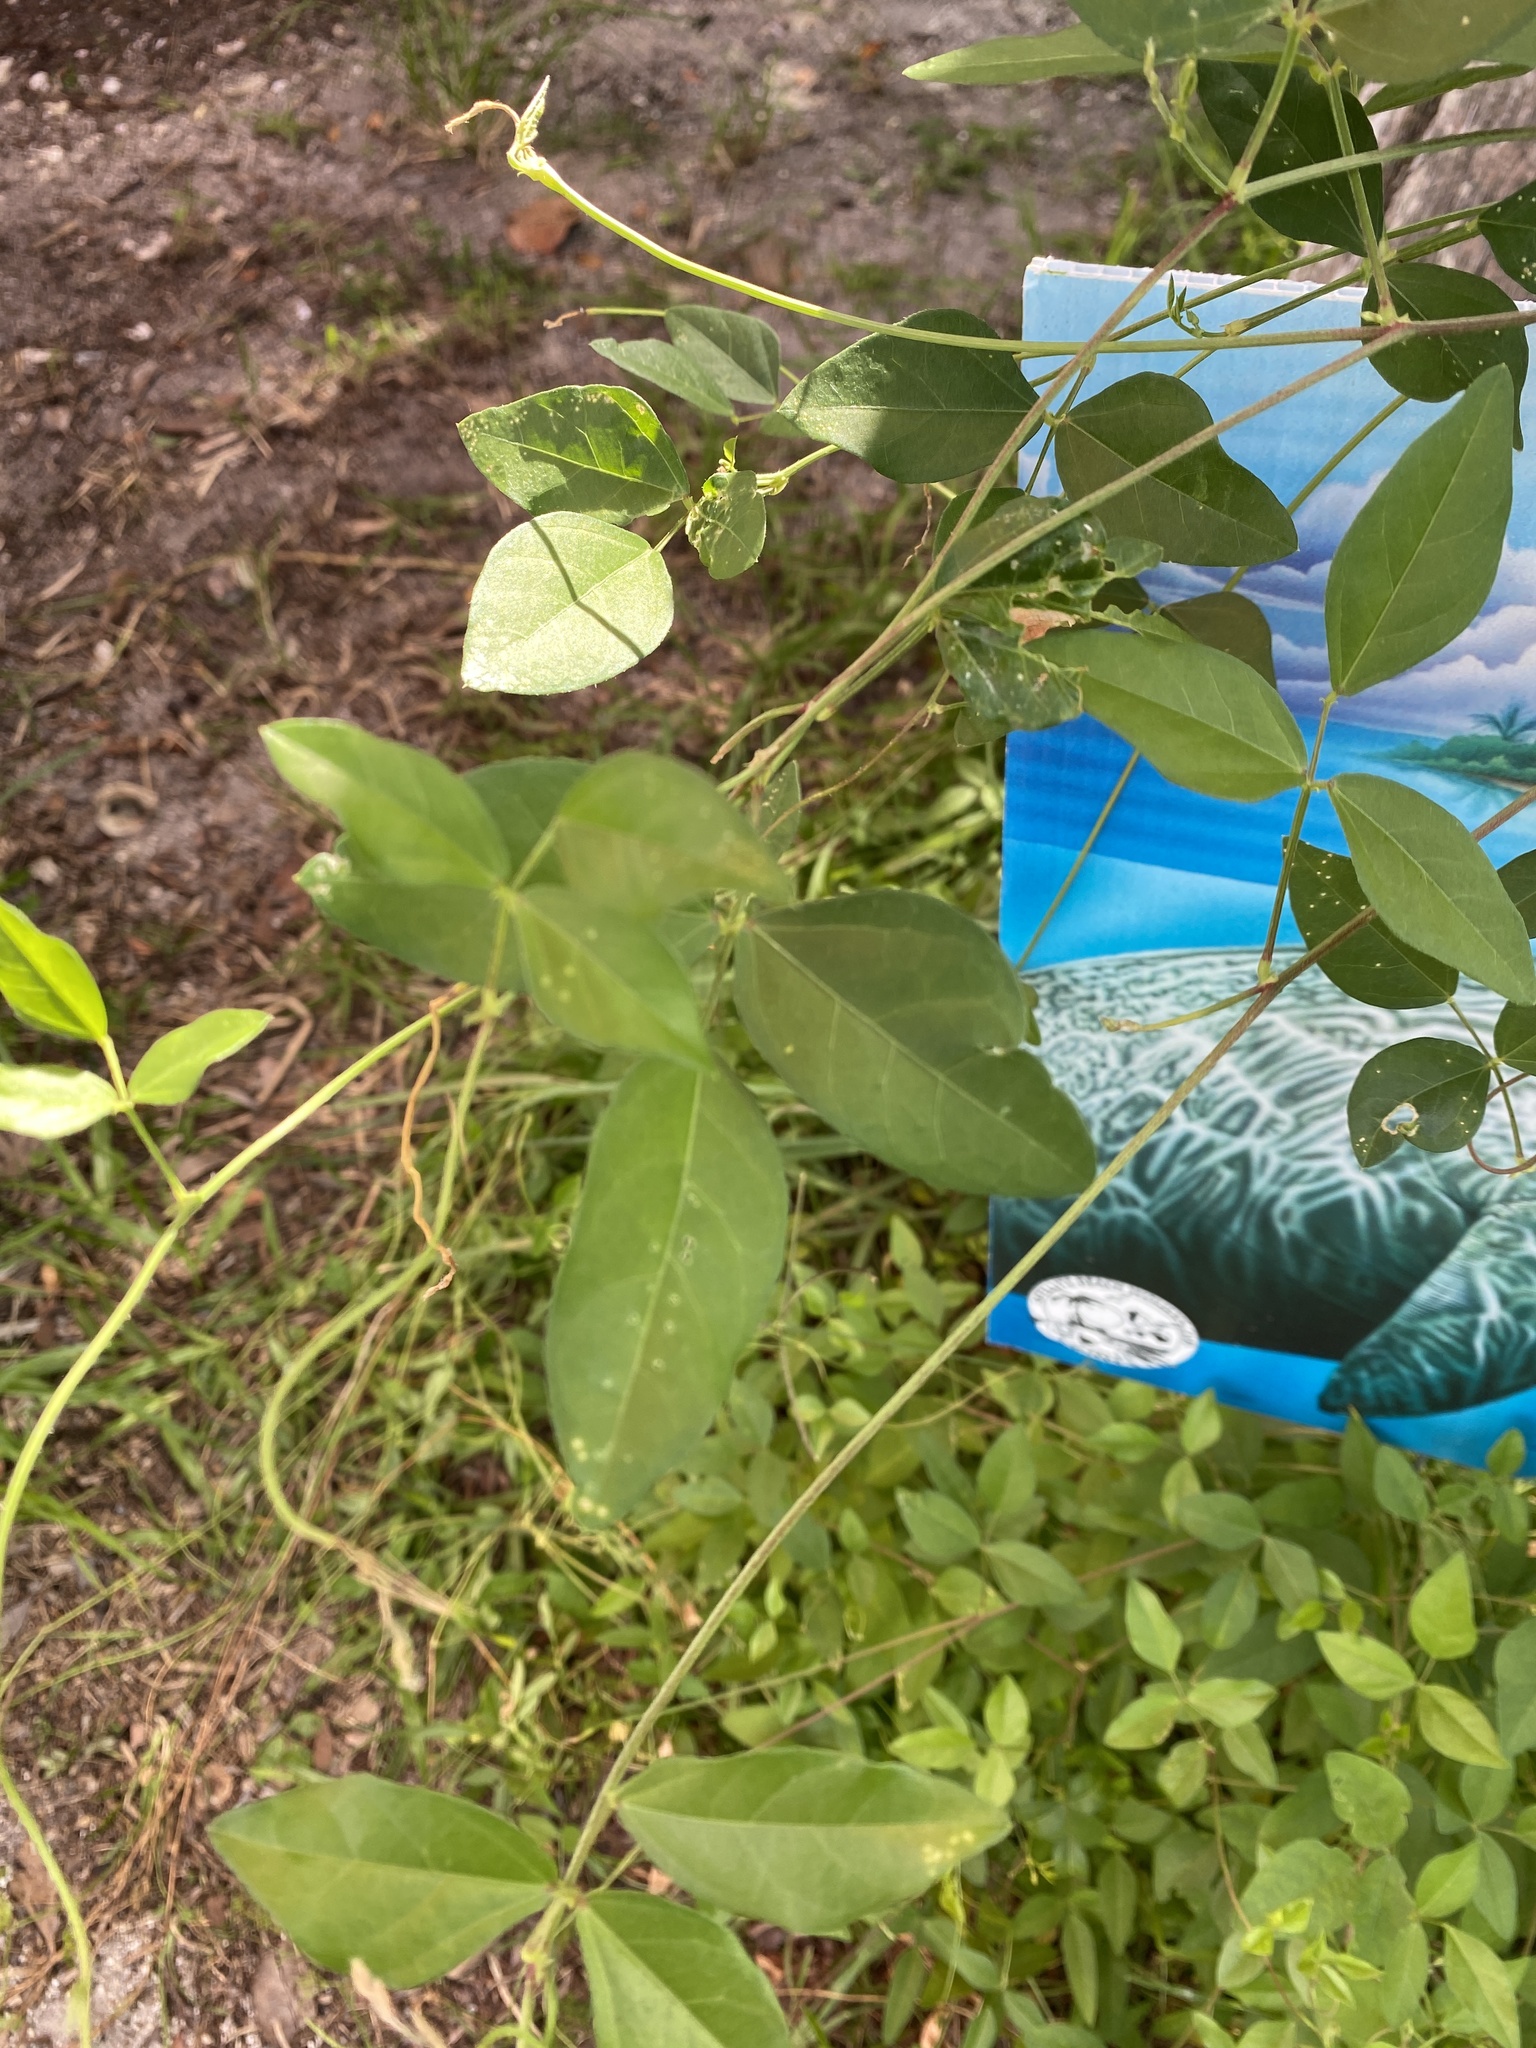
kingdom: Plantae
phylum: Tracheophyta
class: Magnoliopsida
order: Fabales
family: Fabaceae
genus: Vigna
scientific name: Vigna luteola
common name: Hairypod cowpea
